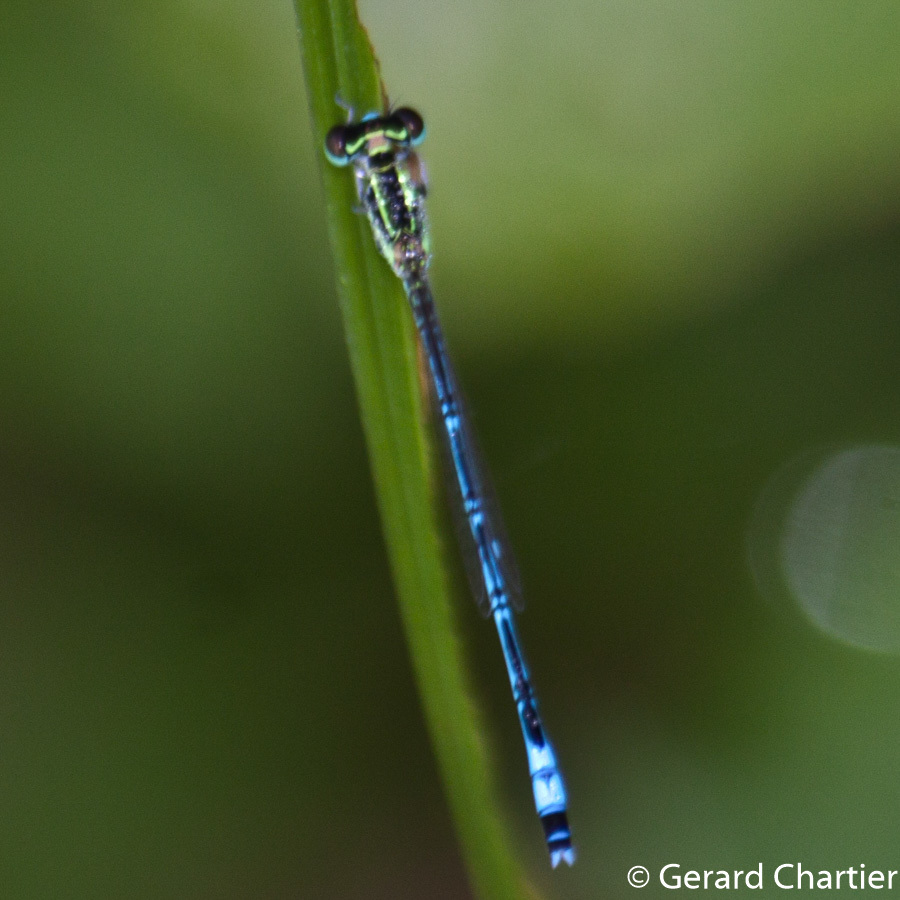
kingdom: Animalia
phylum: Arthropoda
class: Insecta
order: Odonata
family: Coenagrionidae
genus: Agriocnemis
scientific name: Agriocnemis nana
